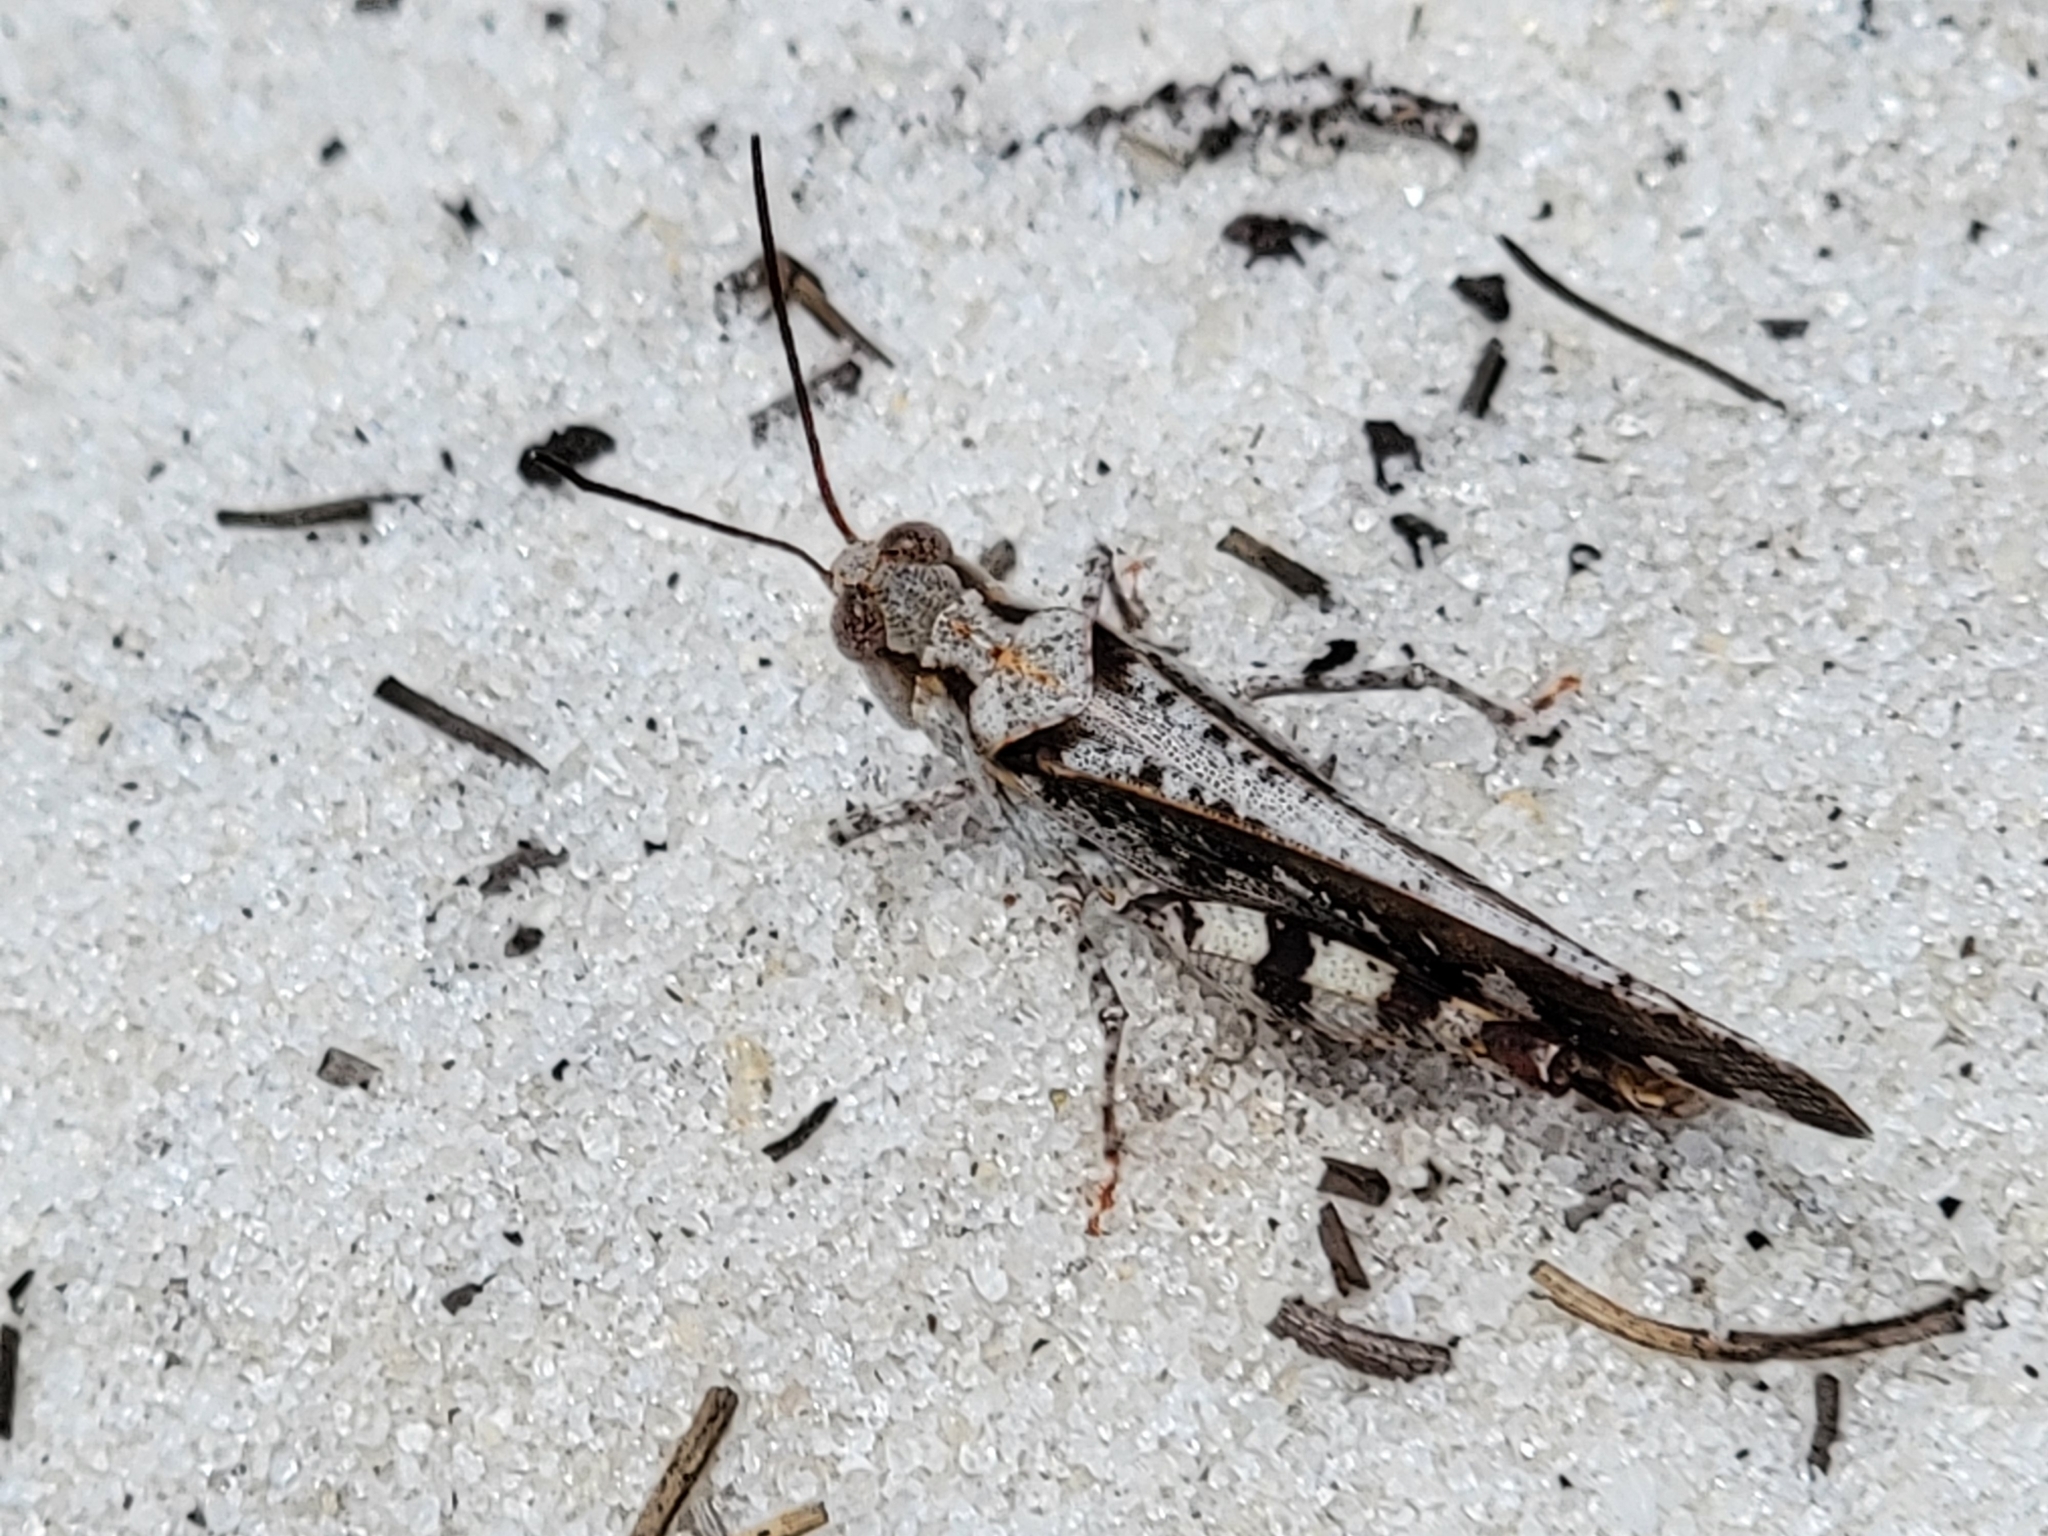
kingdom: Animalia
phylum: Arthropoda
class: Insecta
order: Orthoptera
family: Acrididae
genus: Spharagemon
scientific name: Spharagemon marmoratum
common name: Marbled grasshopper
